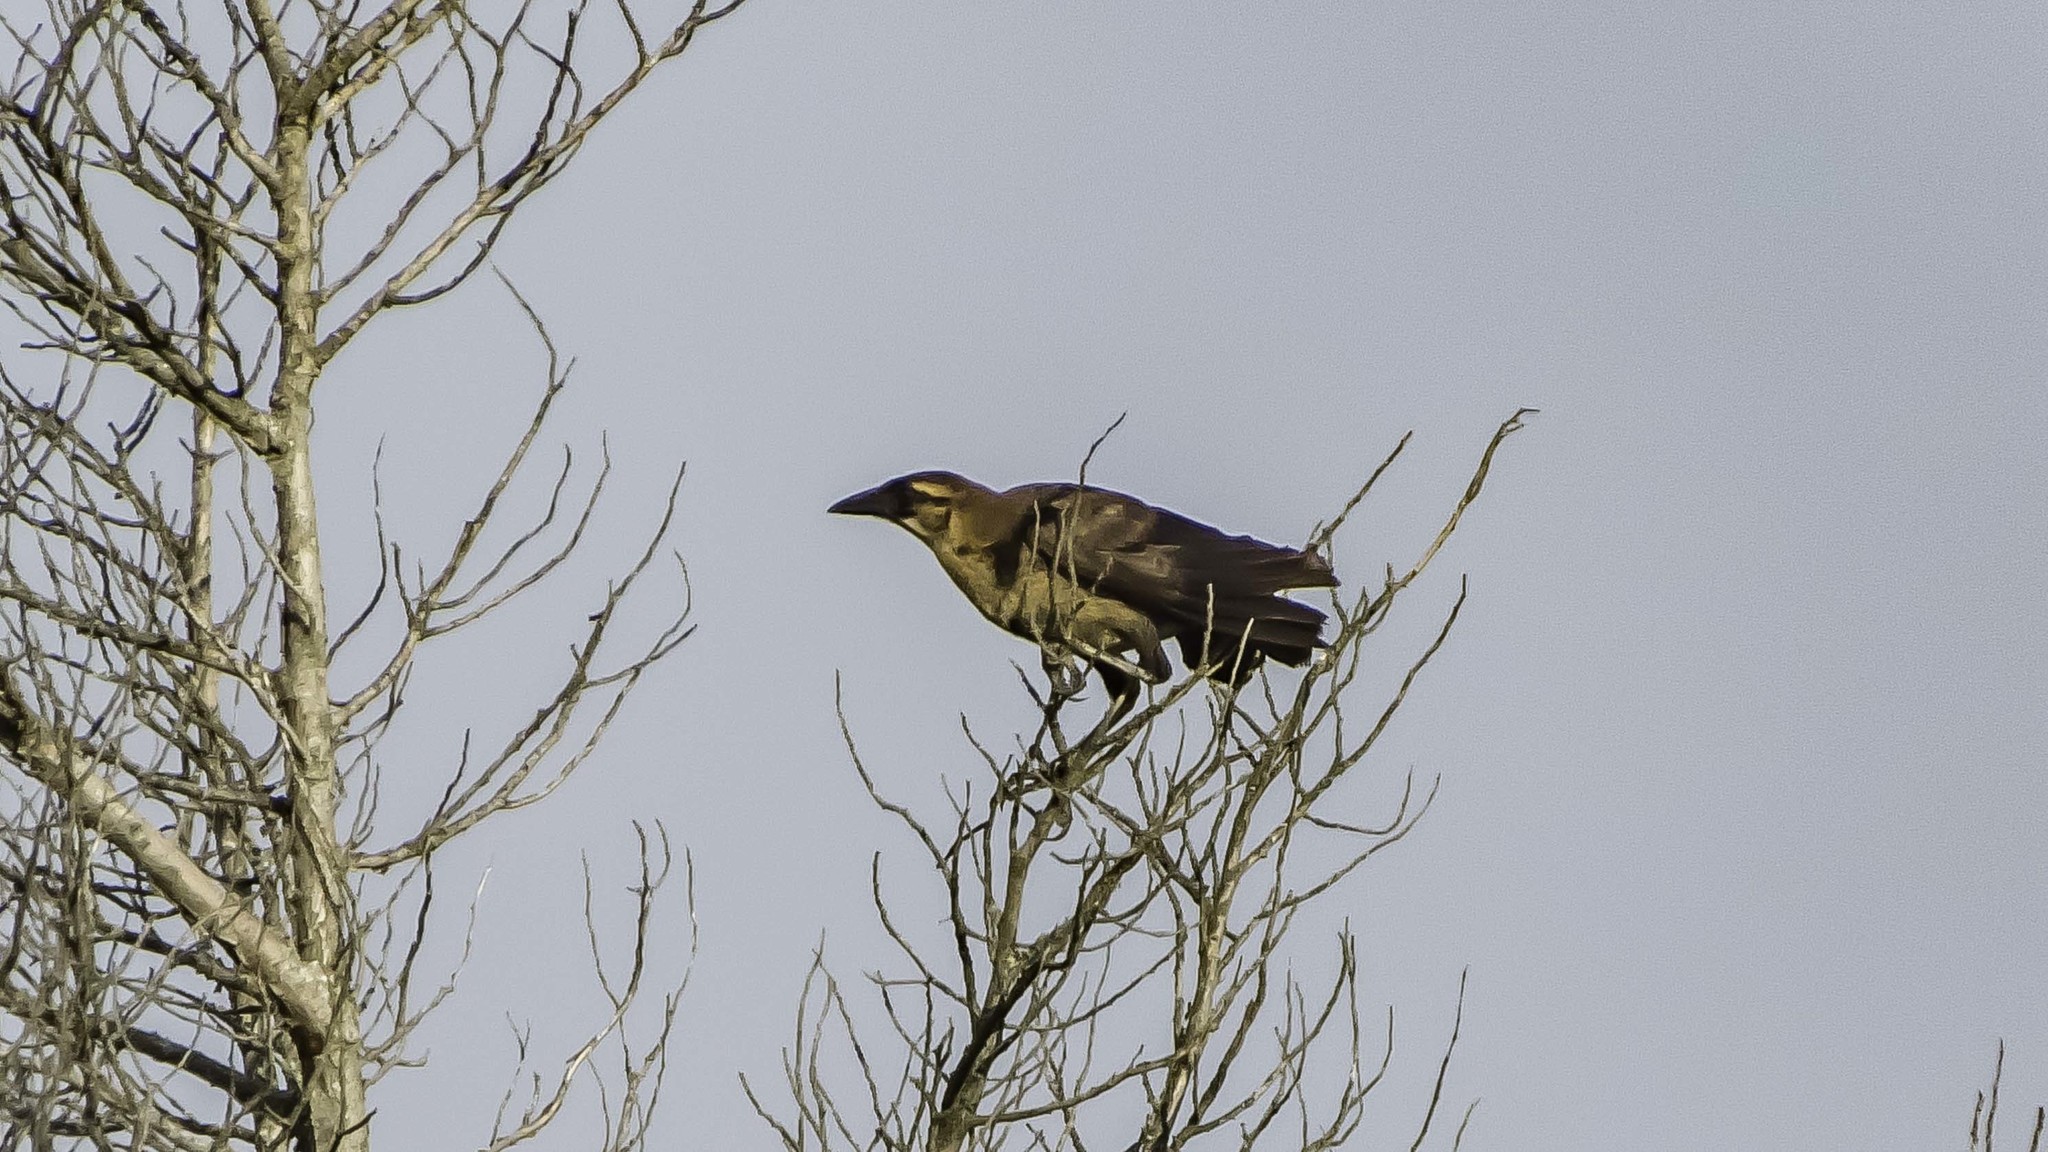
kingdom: Animalia
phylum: Chordata
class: Aves
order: Passeriformes
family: Icteridae
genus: Quiscalus
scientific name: Quiscalus major
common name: Boat-tailed grackle
